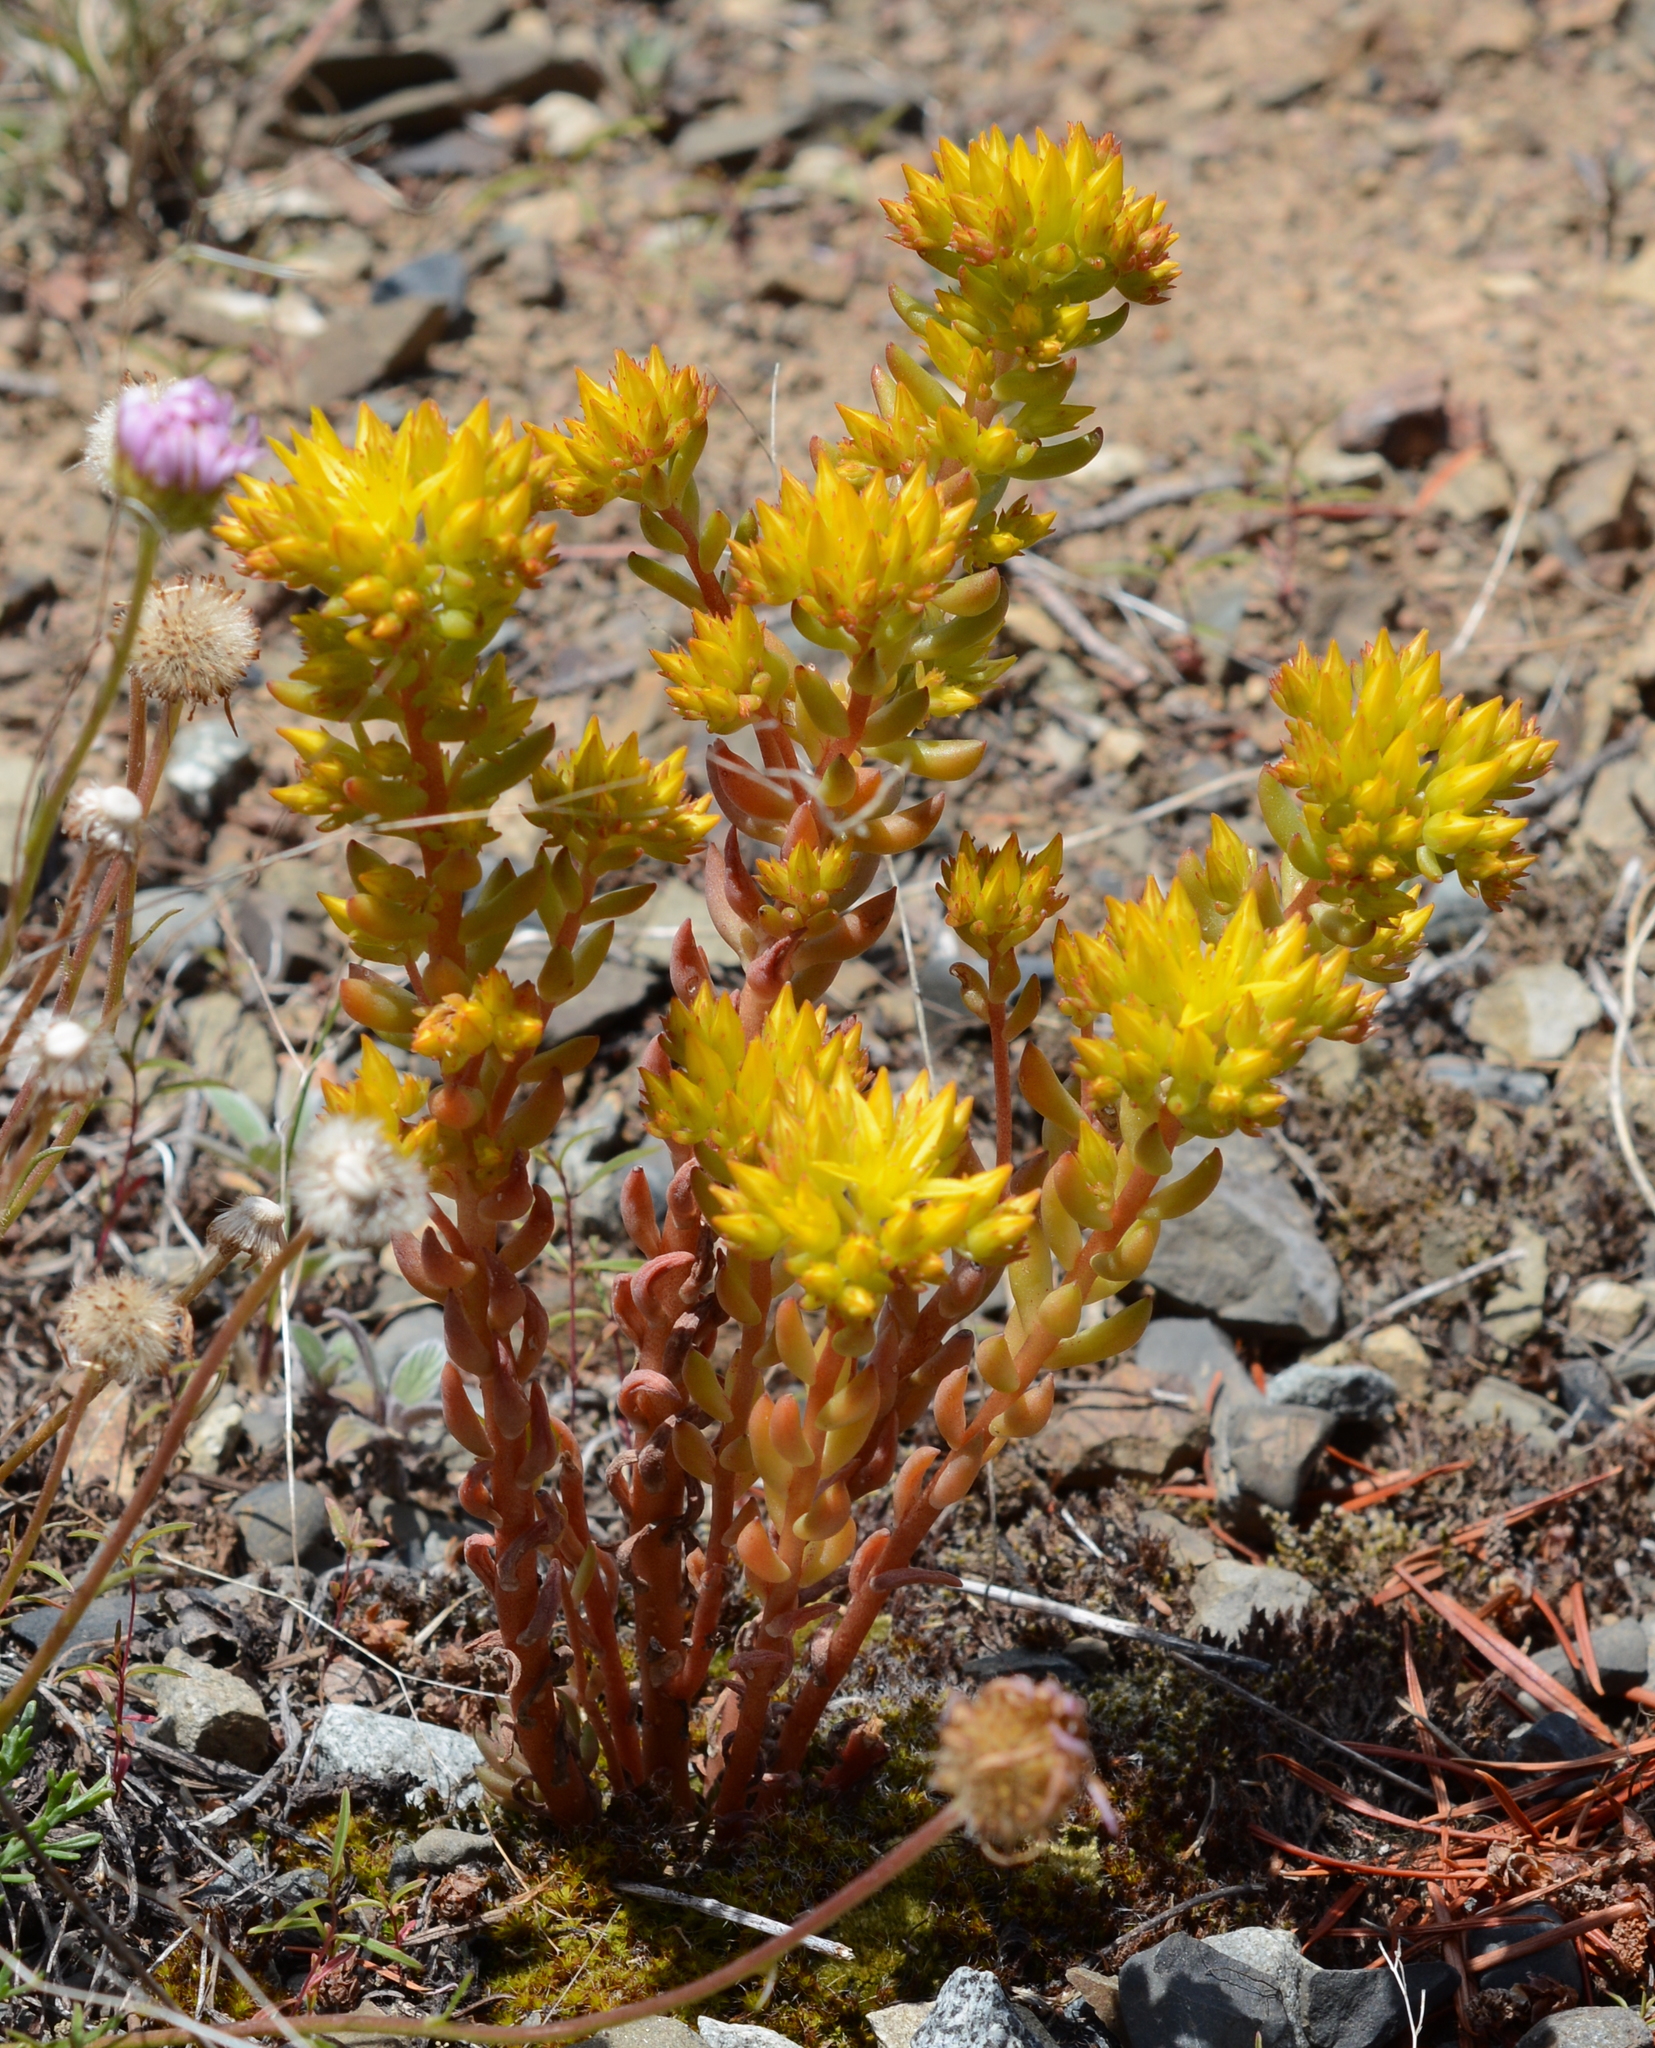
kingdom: Plantae
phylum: Tracheophyta
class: Magnoliopsida
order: Saxifragales
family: Crassulaceae
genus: Sedum
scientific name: Sedum lanceolatum
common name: Common stonecrop
